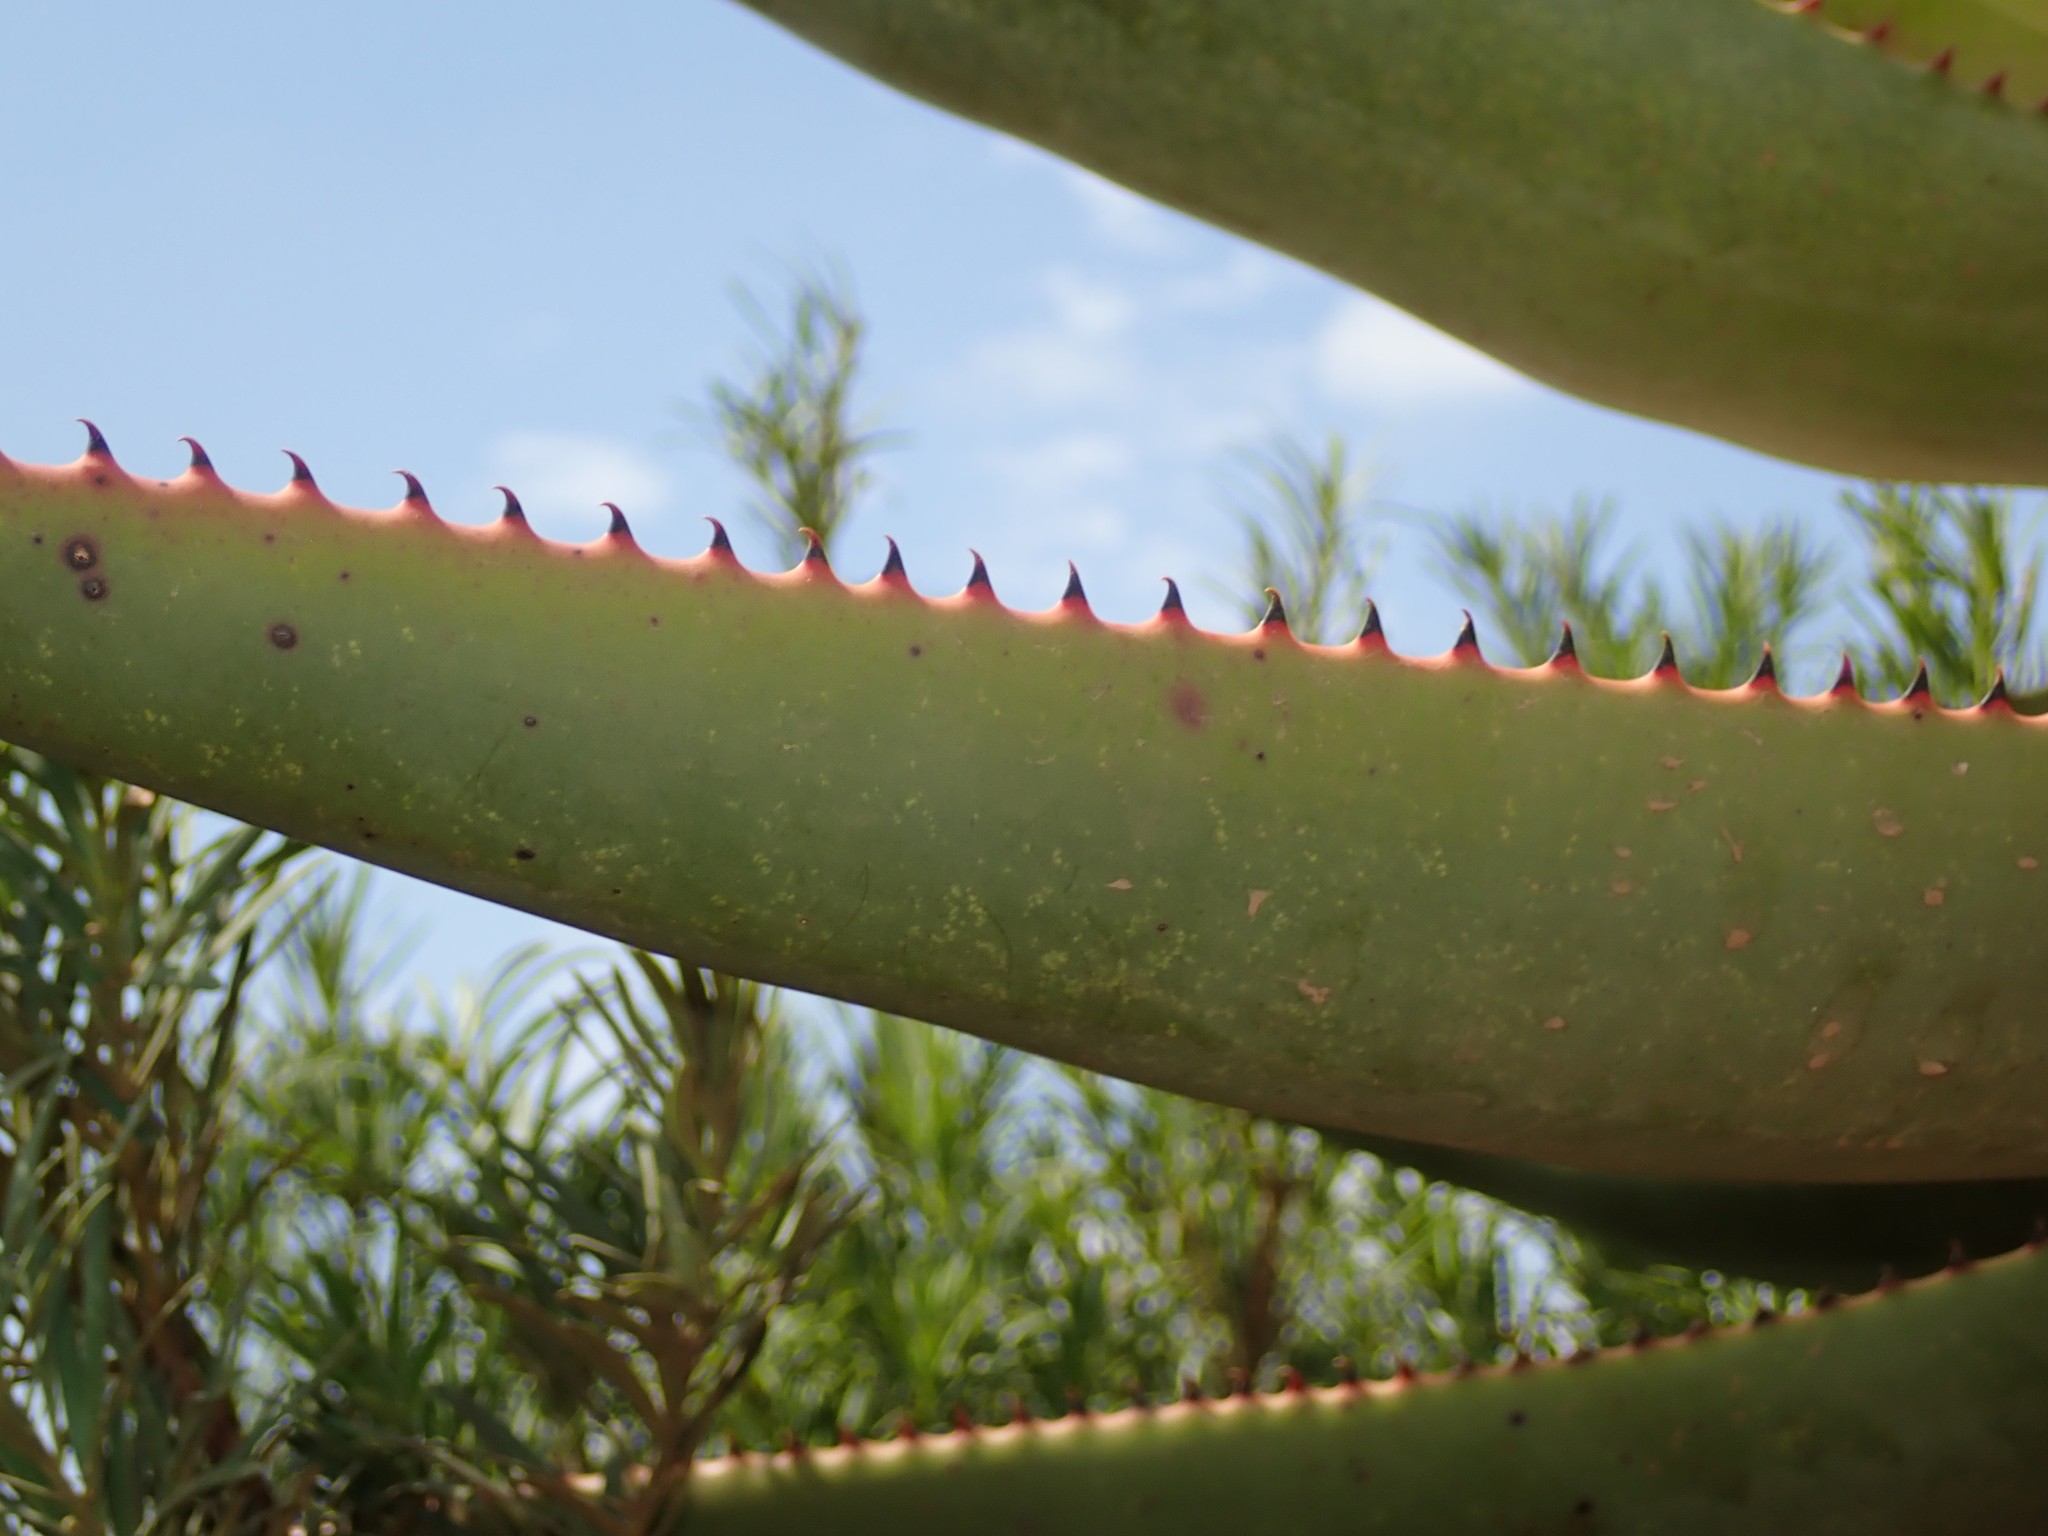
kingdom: Plantae
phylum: Tracheophyta
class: Liliopsida
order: Asparagales
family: Asphodelaceae
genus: Aloe
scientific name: Aloe ferox
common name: Bitter aloe
